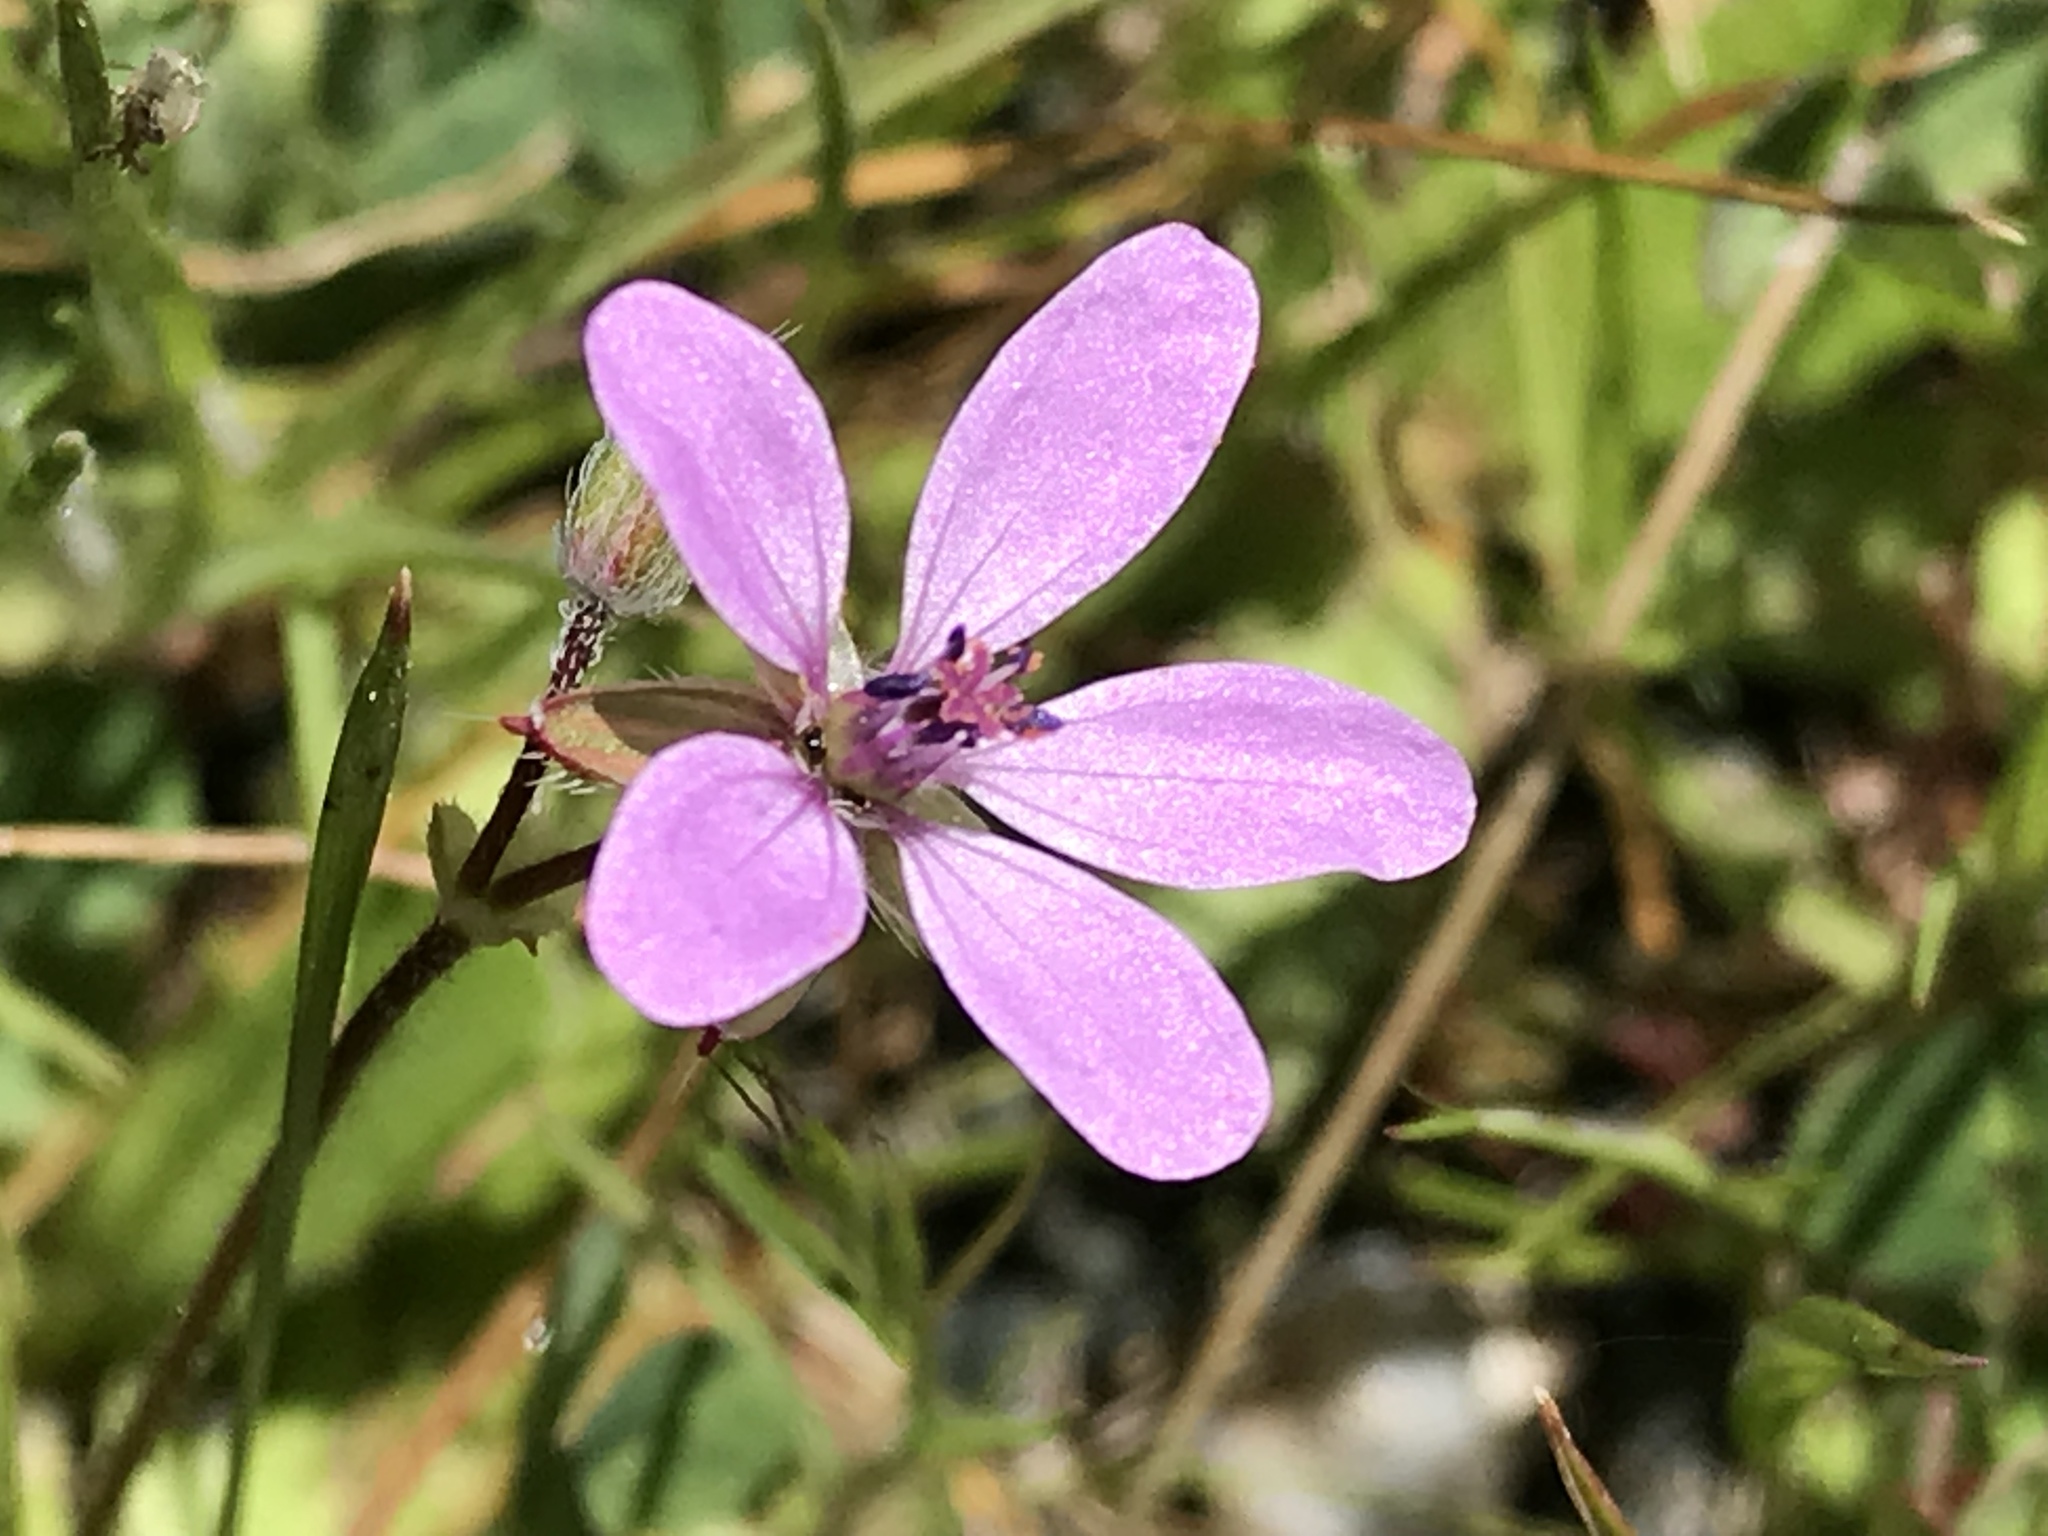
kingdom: Plantae
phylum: Tracheophyta
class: Magnoliopsida
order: Geraniales
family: Geraniaceae
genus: Erodium
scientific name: Erodium cicutarium
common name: Common stork's-bill
